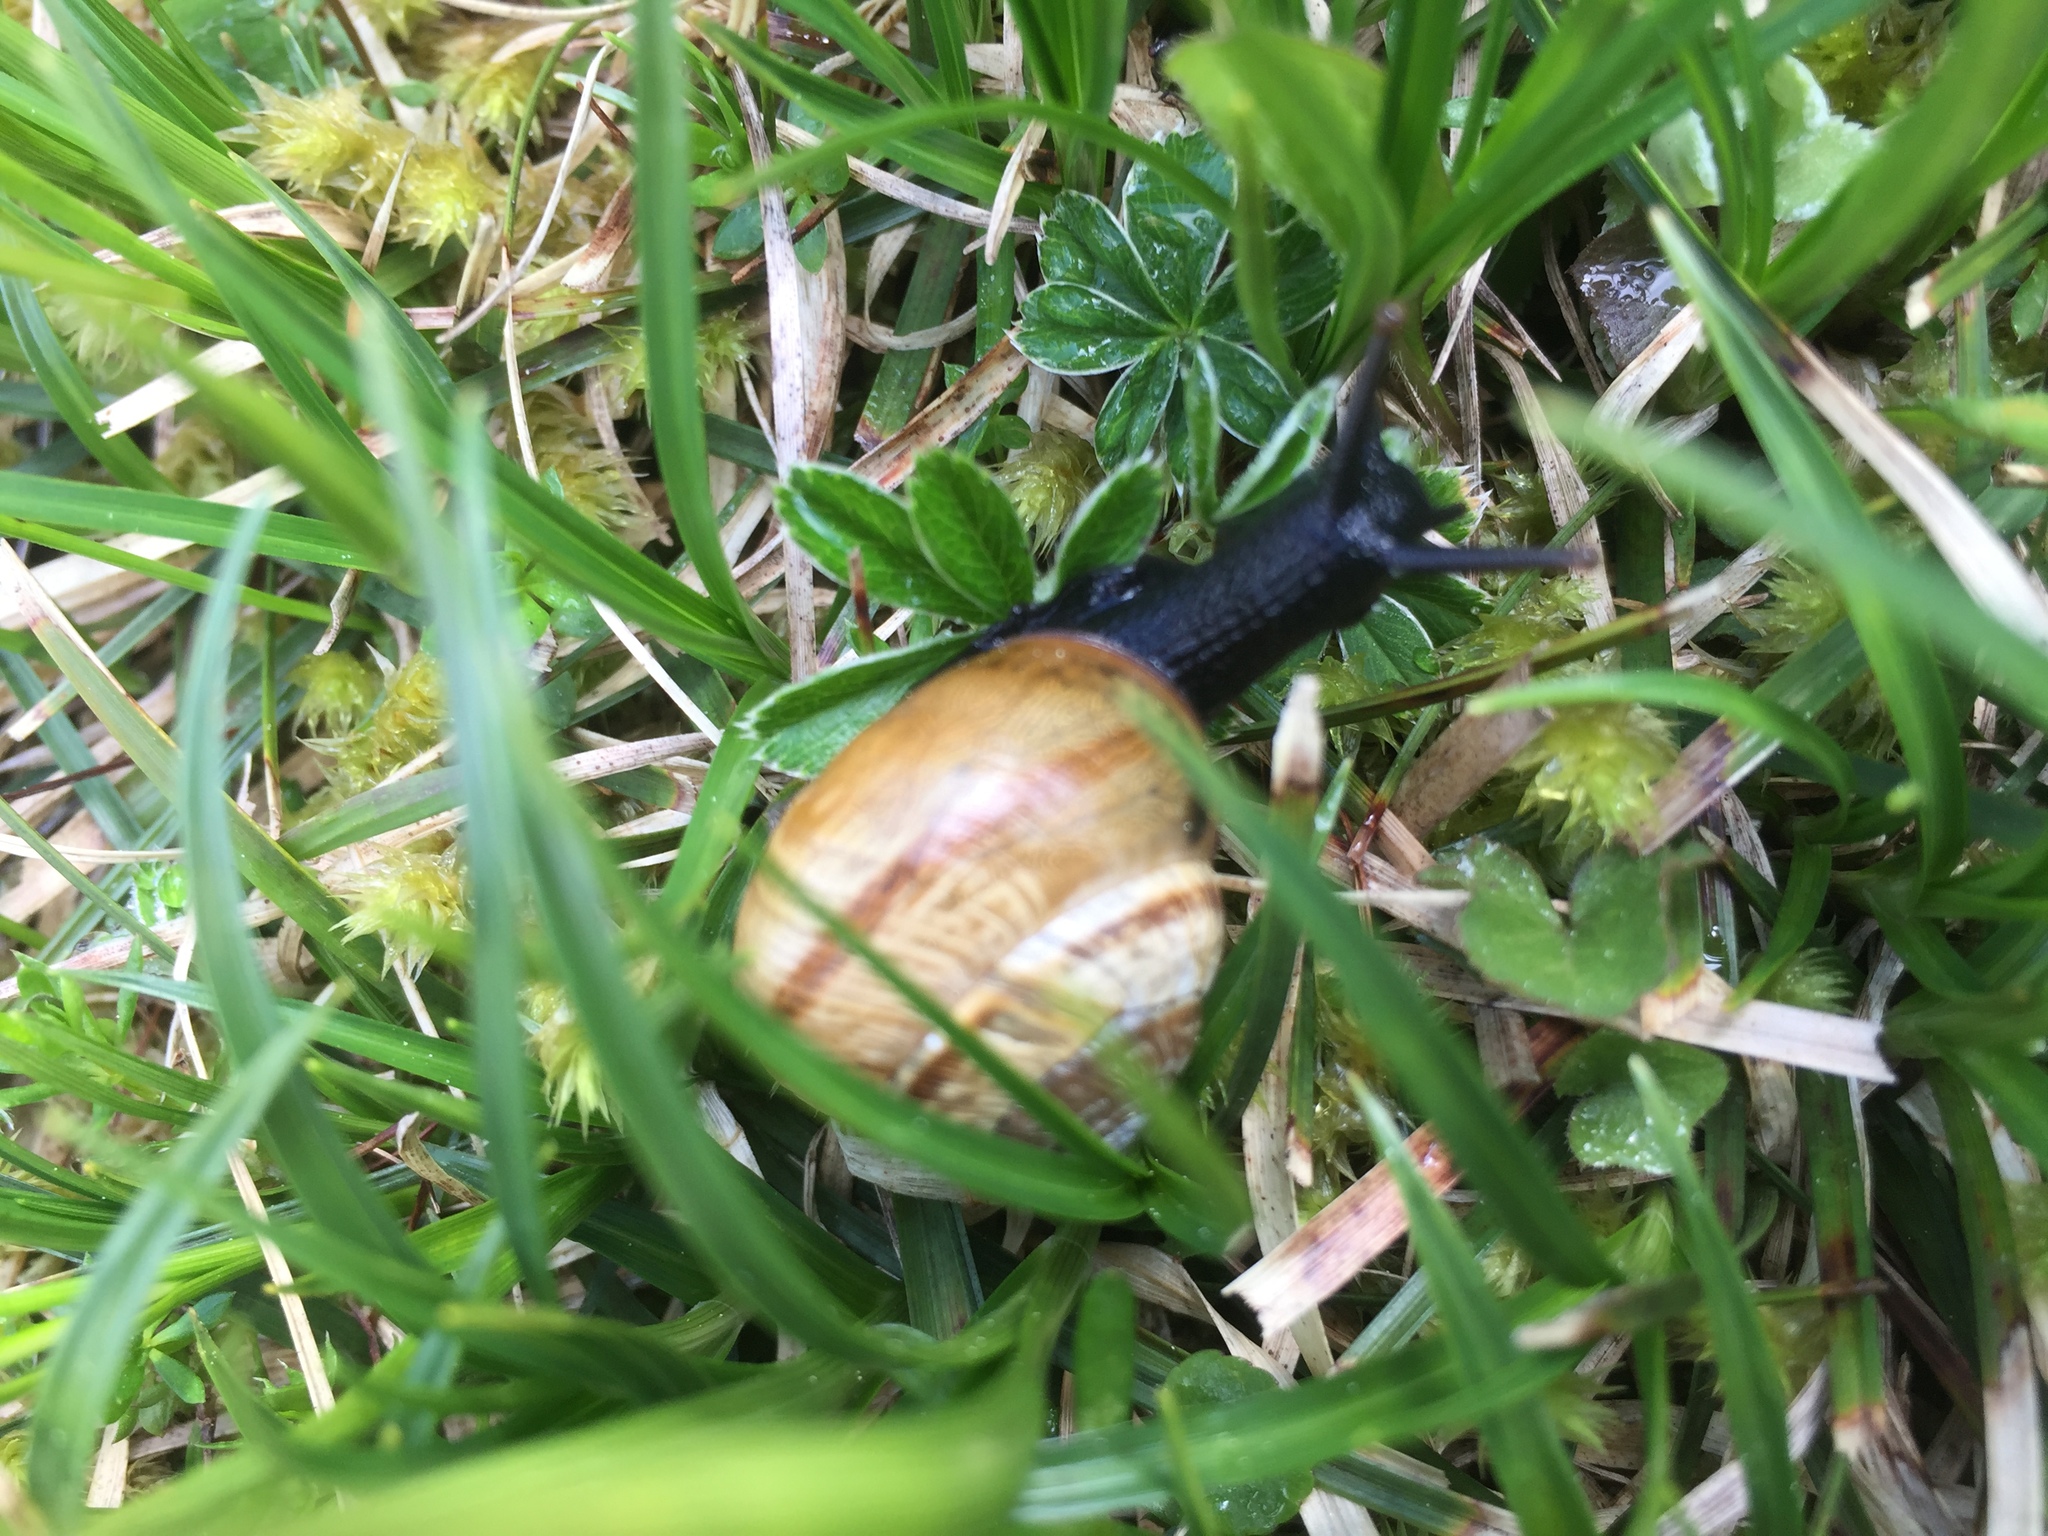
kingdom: Animalia
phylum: Mollusca
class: Gastropoda
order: Stylommatophora
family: Helicidae
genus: Arianta
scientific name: Arianta arbustorum
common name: Copse snail
